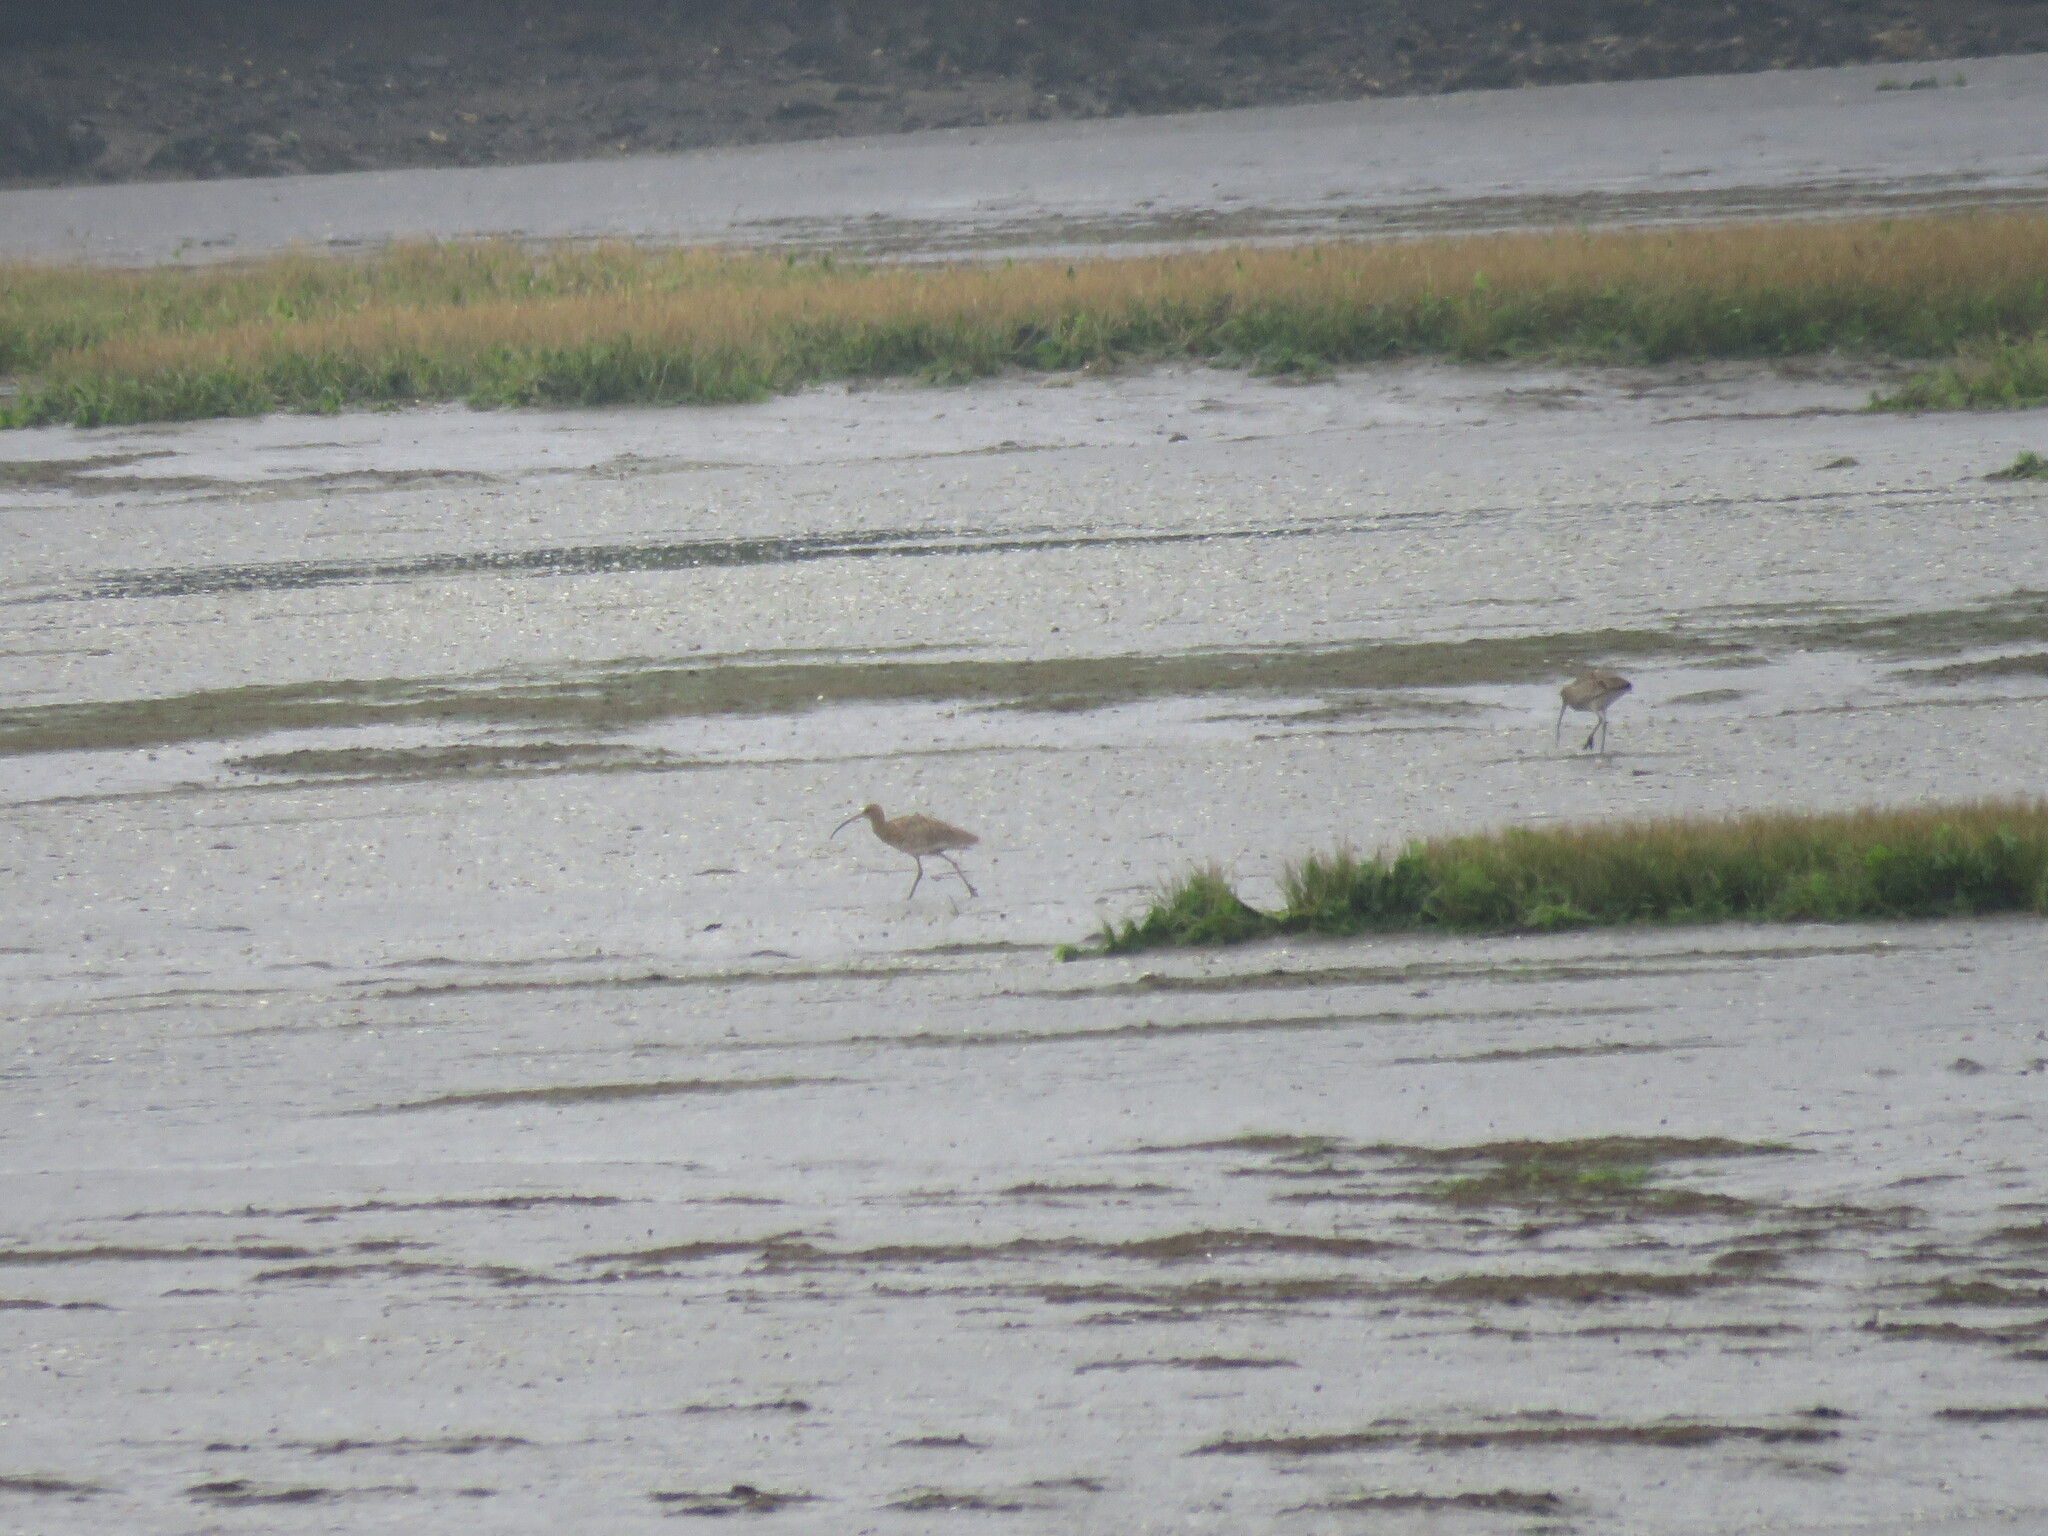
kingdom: Animalia
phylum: Chordata
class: Aves
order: Charadriiformes
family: Scolopacidae
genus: Numenius
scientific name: Numenius arquata
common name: Eurasian curlew
